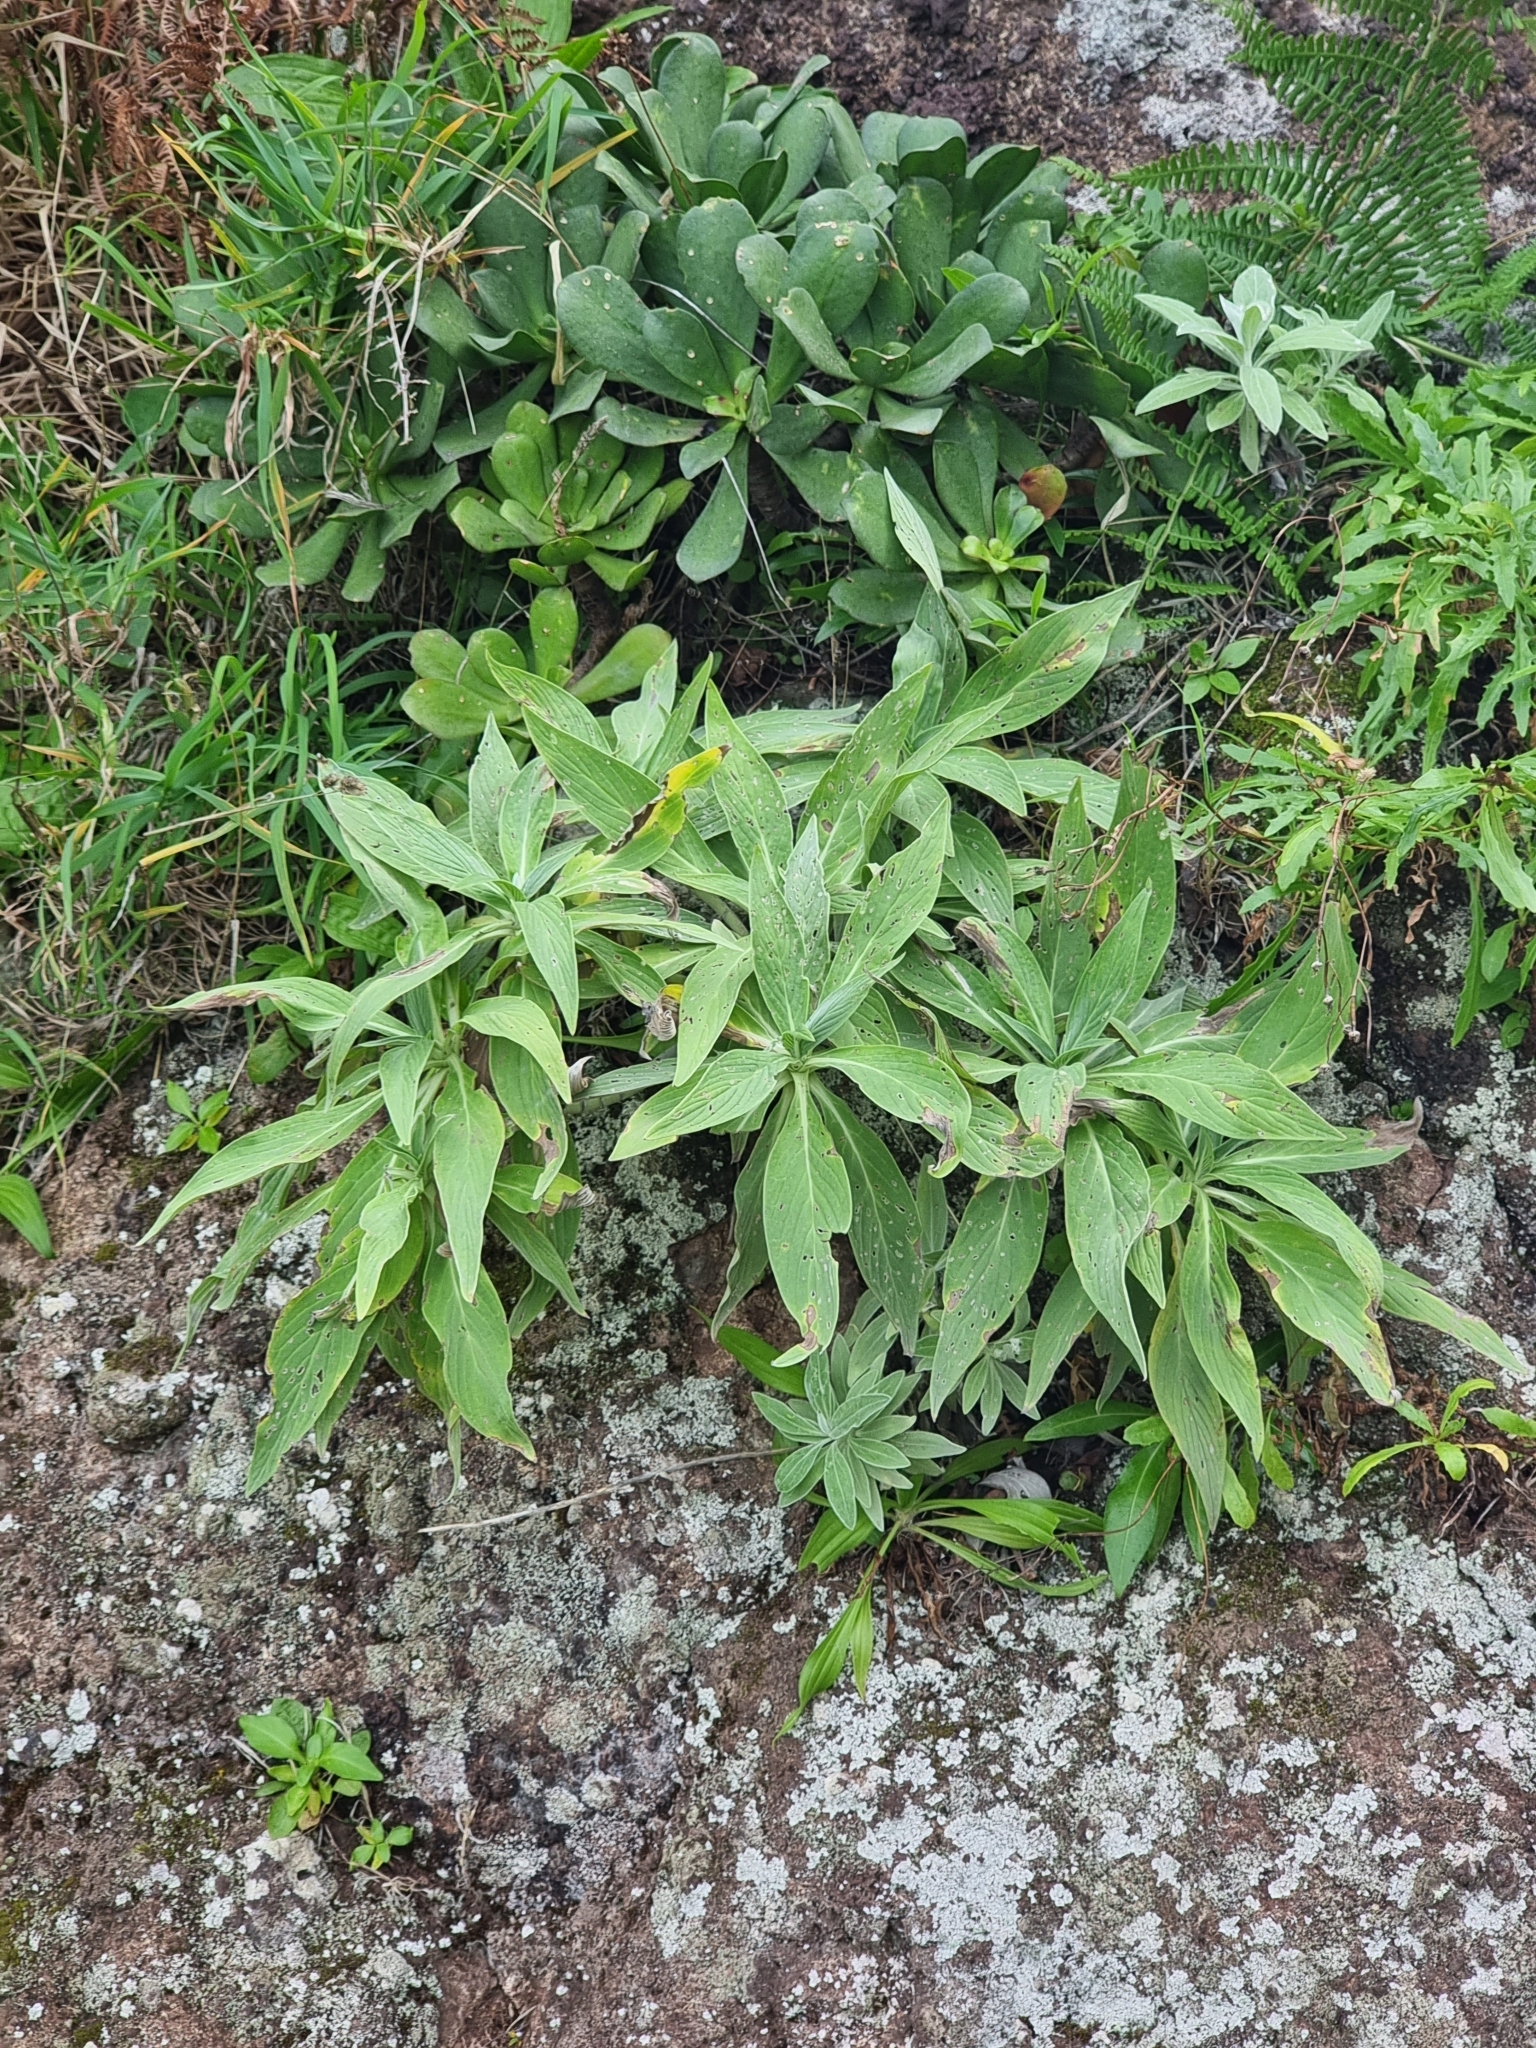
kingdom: Plantae
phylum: Tracheophyta
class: Magnoliopsida
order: Boraginales
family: Boraginaceae
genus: Echium
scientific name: Echium nervosum
